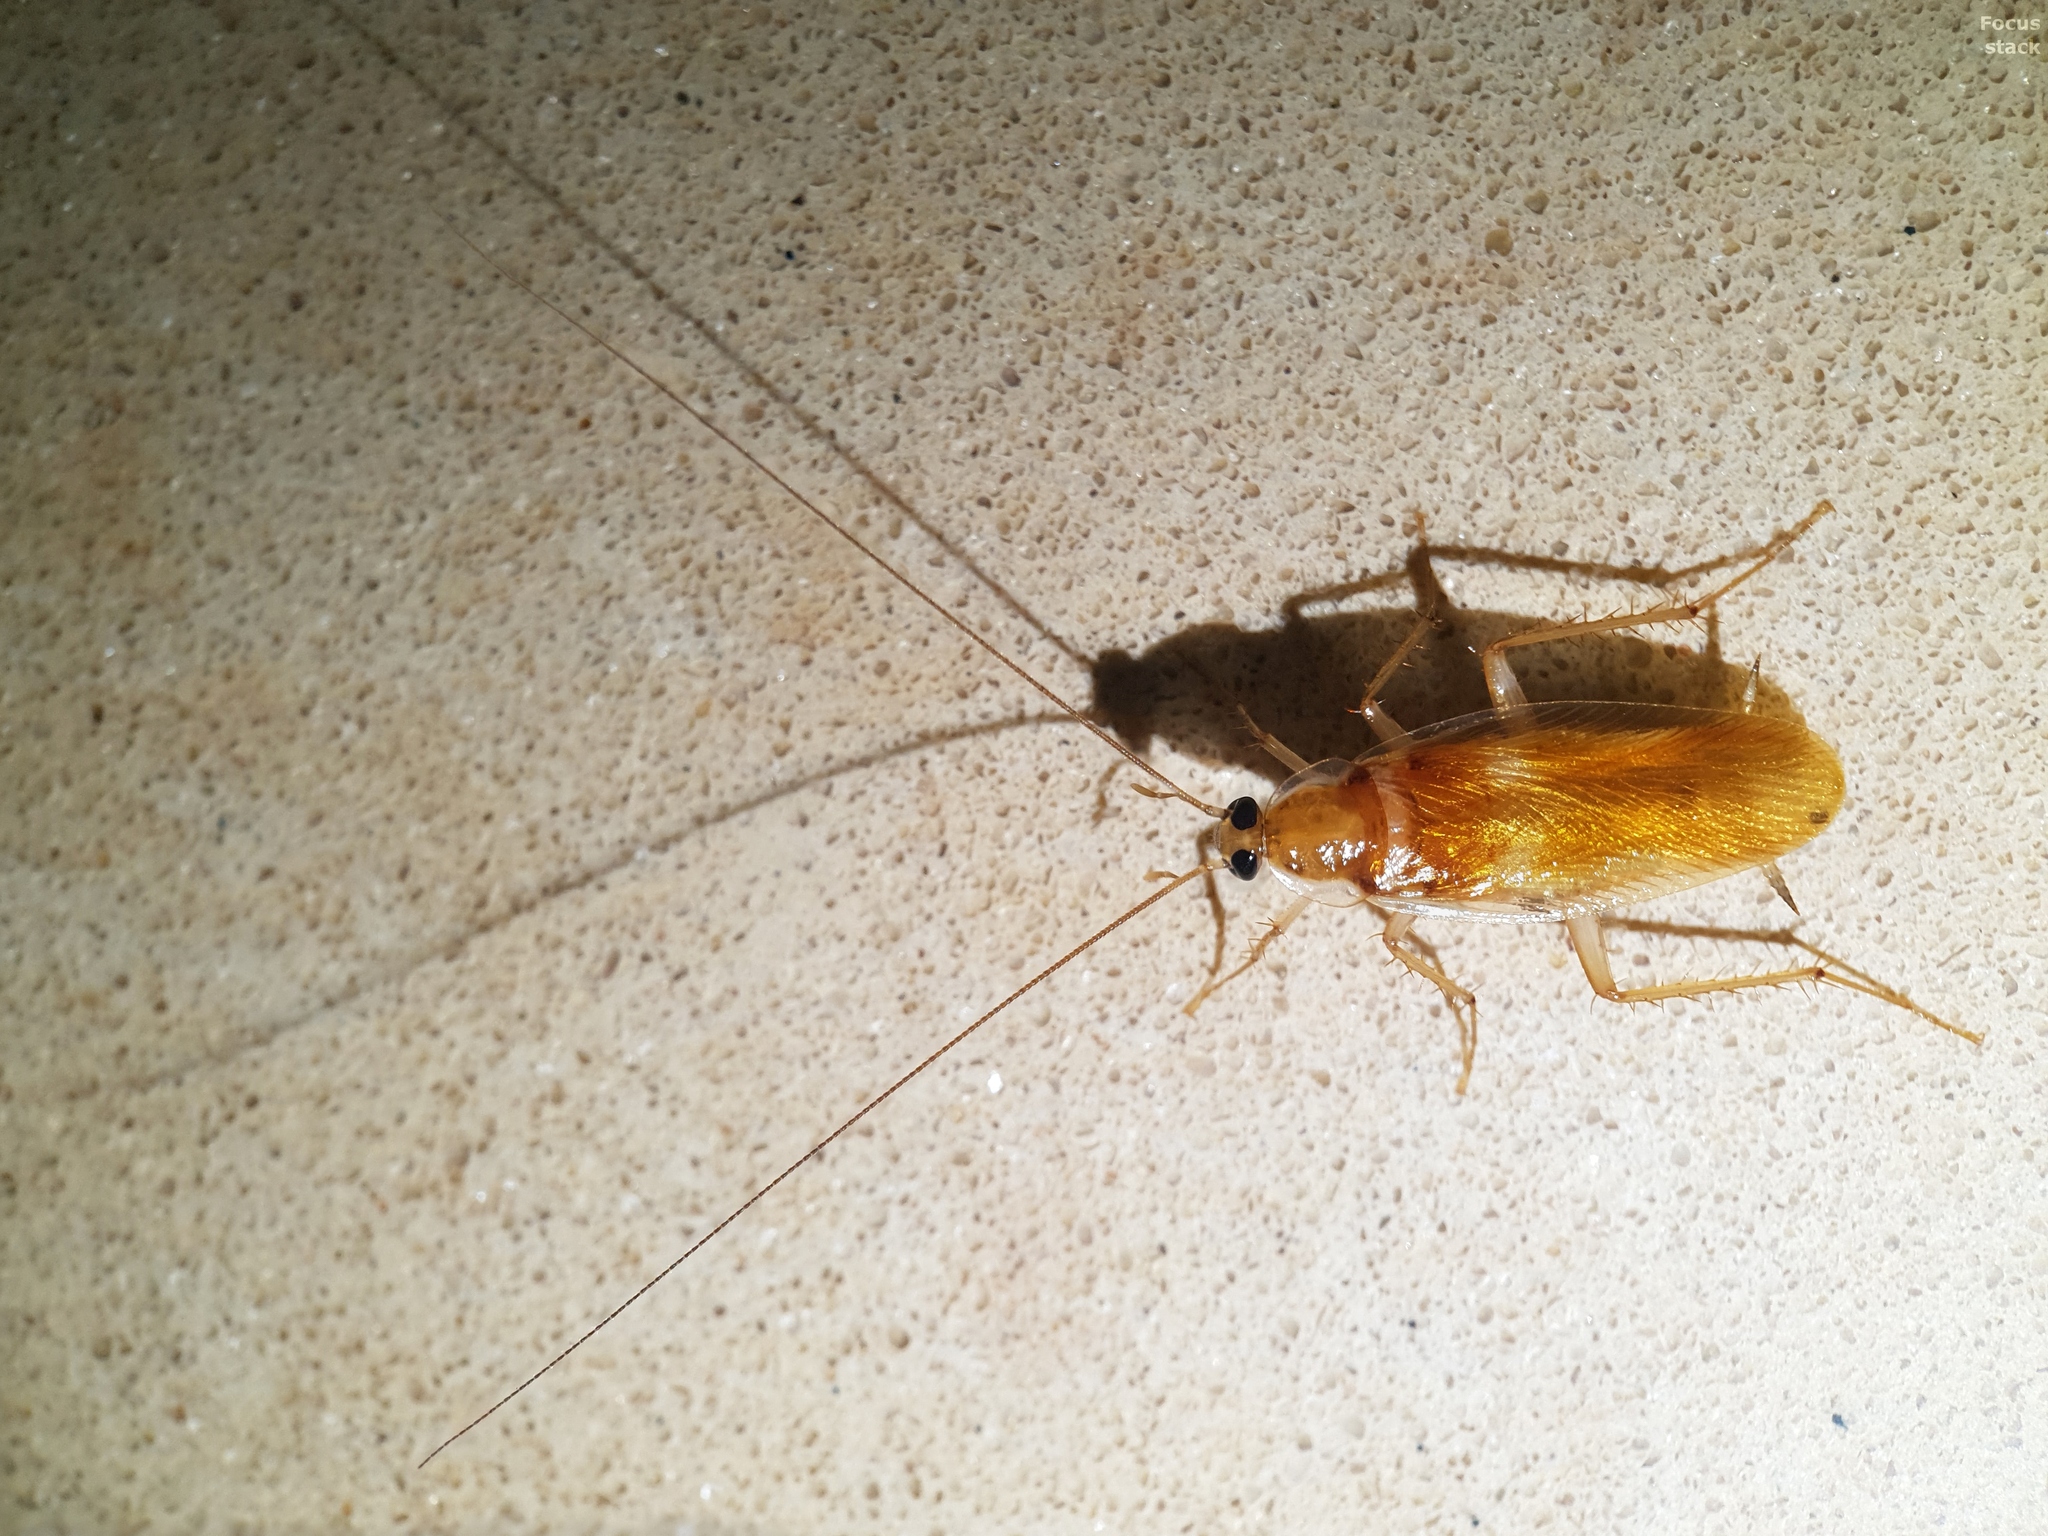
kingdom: Animalia
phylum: Arthropoda
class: Insecta
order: Blattodea
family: Ectobiidae
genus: Supella
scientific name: Supella longipalpa
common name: Brown-banded cockroach
